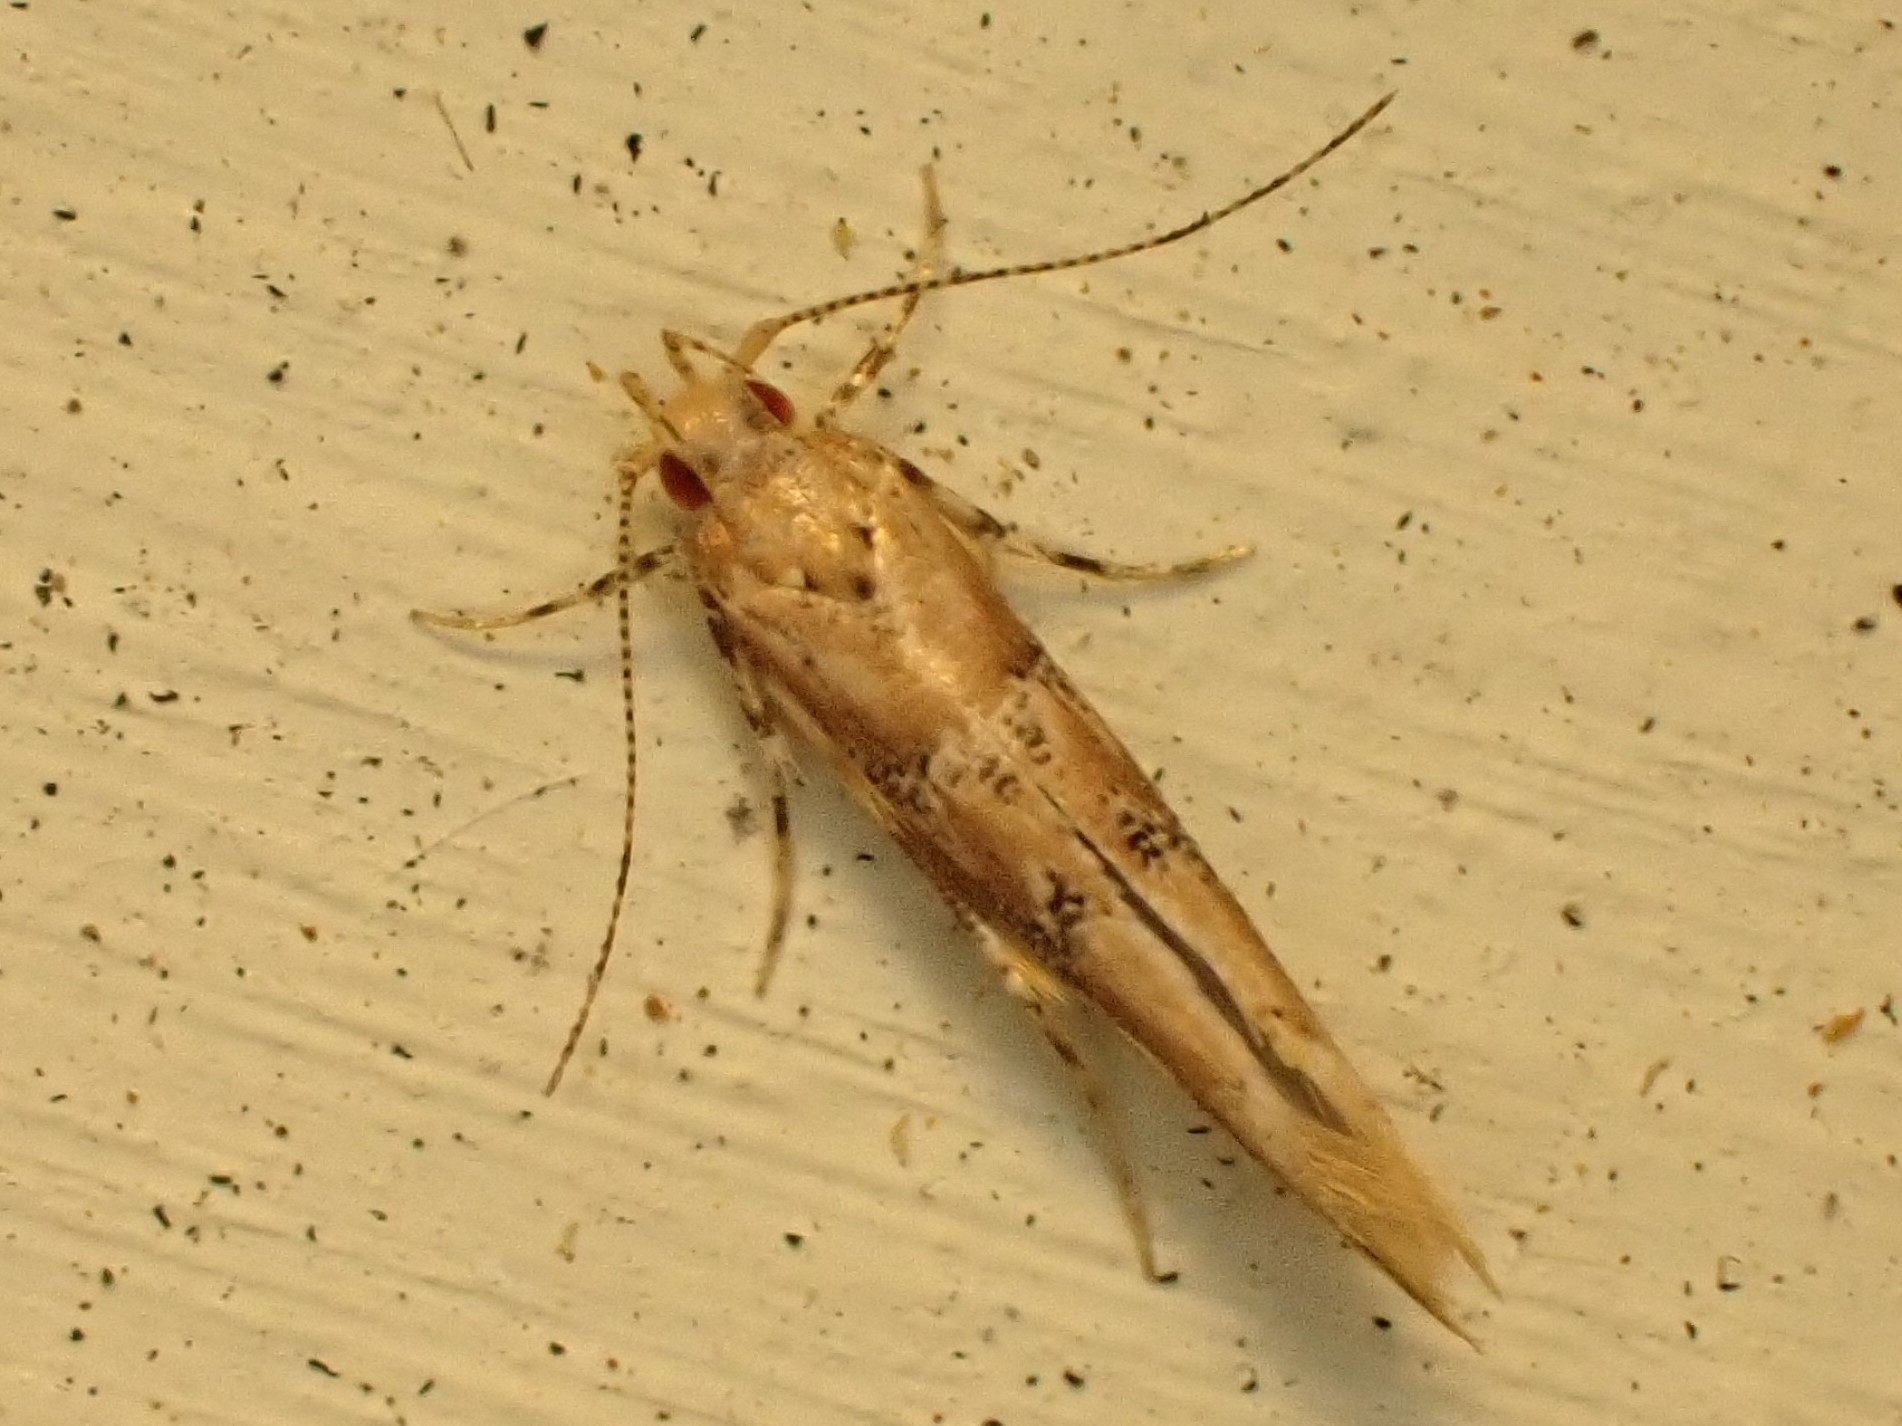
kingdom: Animalia
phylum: Arthropoda
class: Insecta
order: Lepidoptera
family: Cosmopterigidae
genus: Pyroderces
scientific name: Pyroderces aellotricha
